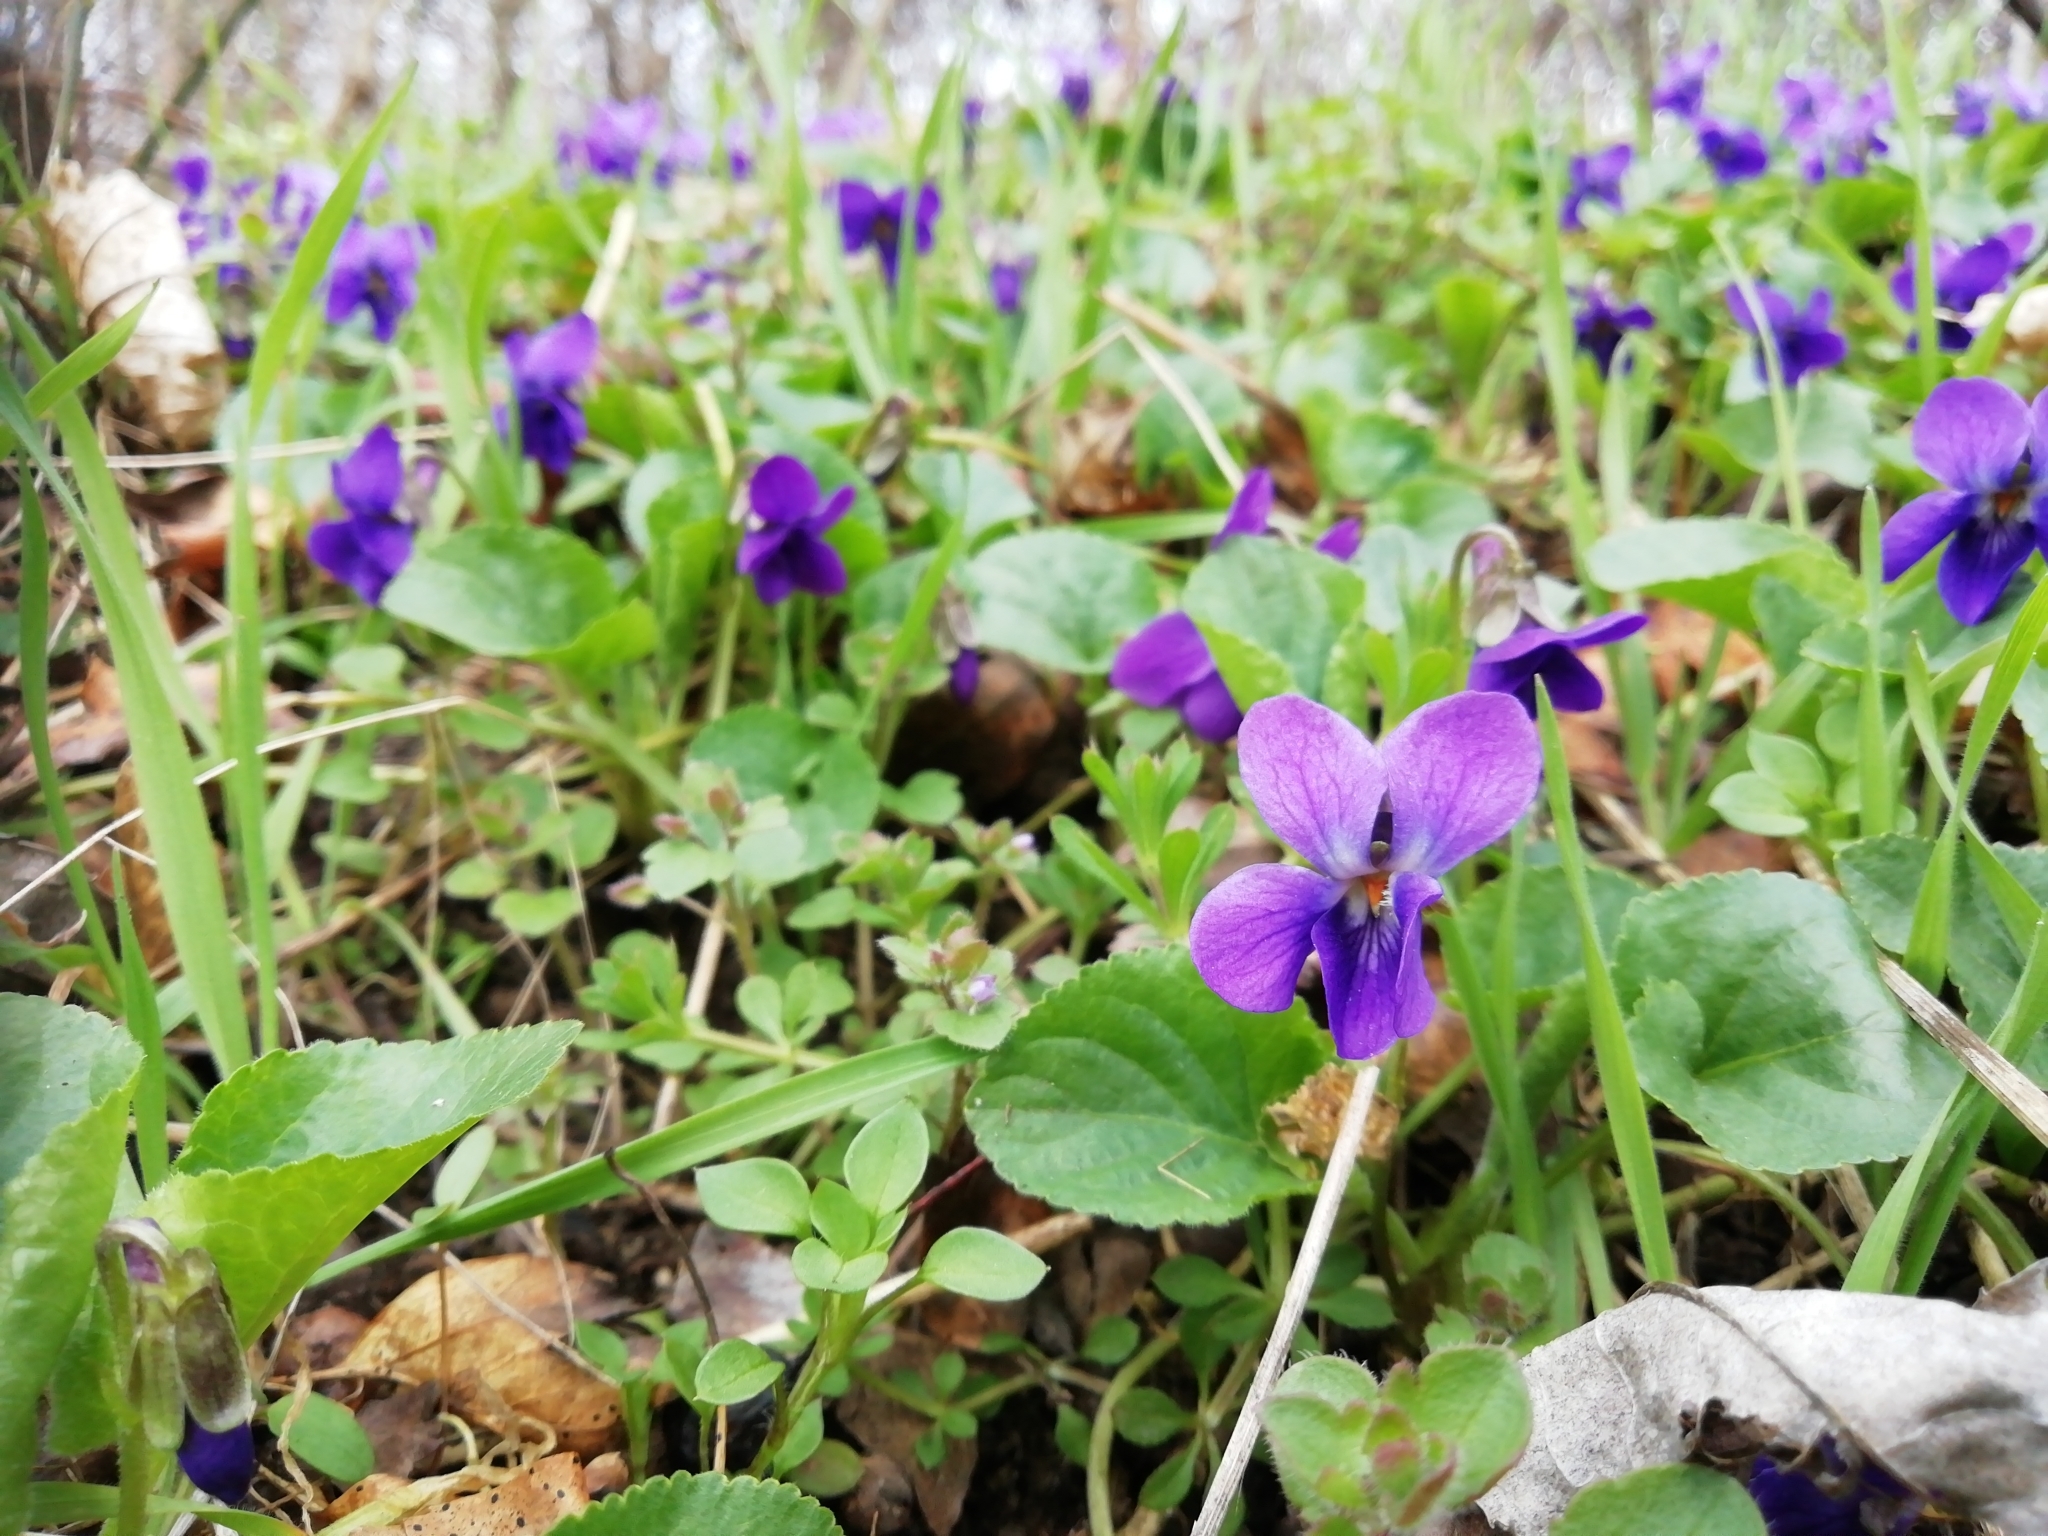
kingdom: Plantae
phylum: Tracheophyta
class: Magnoliopsida
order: Malpighiales
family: Violaceae
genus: Viola
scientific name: Viola odorata
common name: Sweet violet
